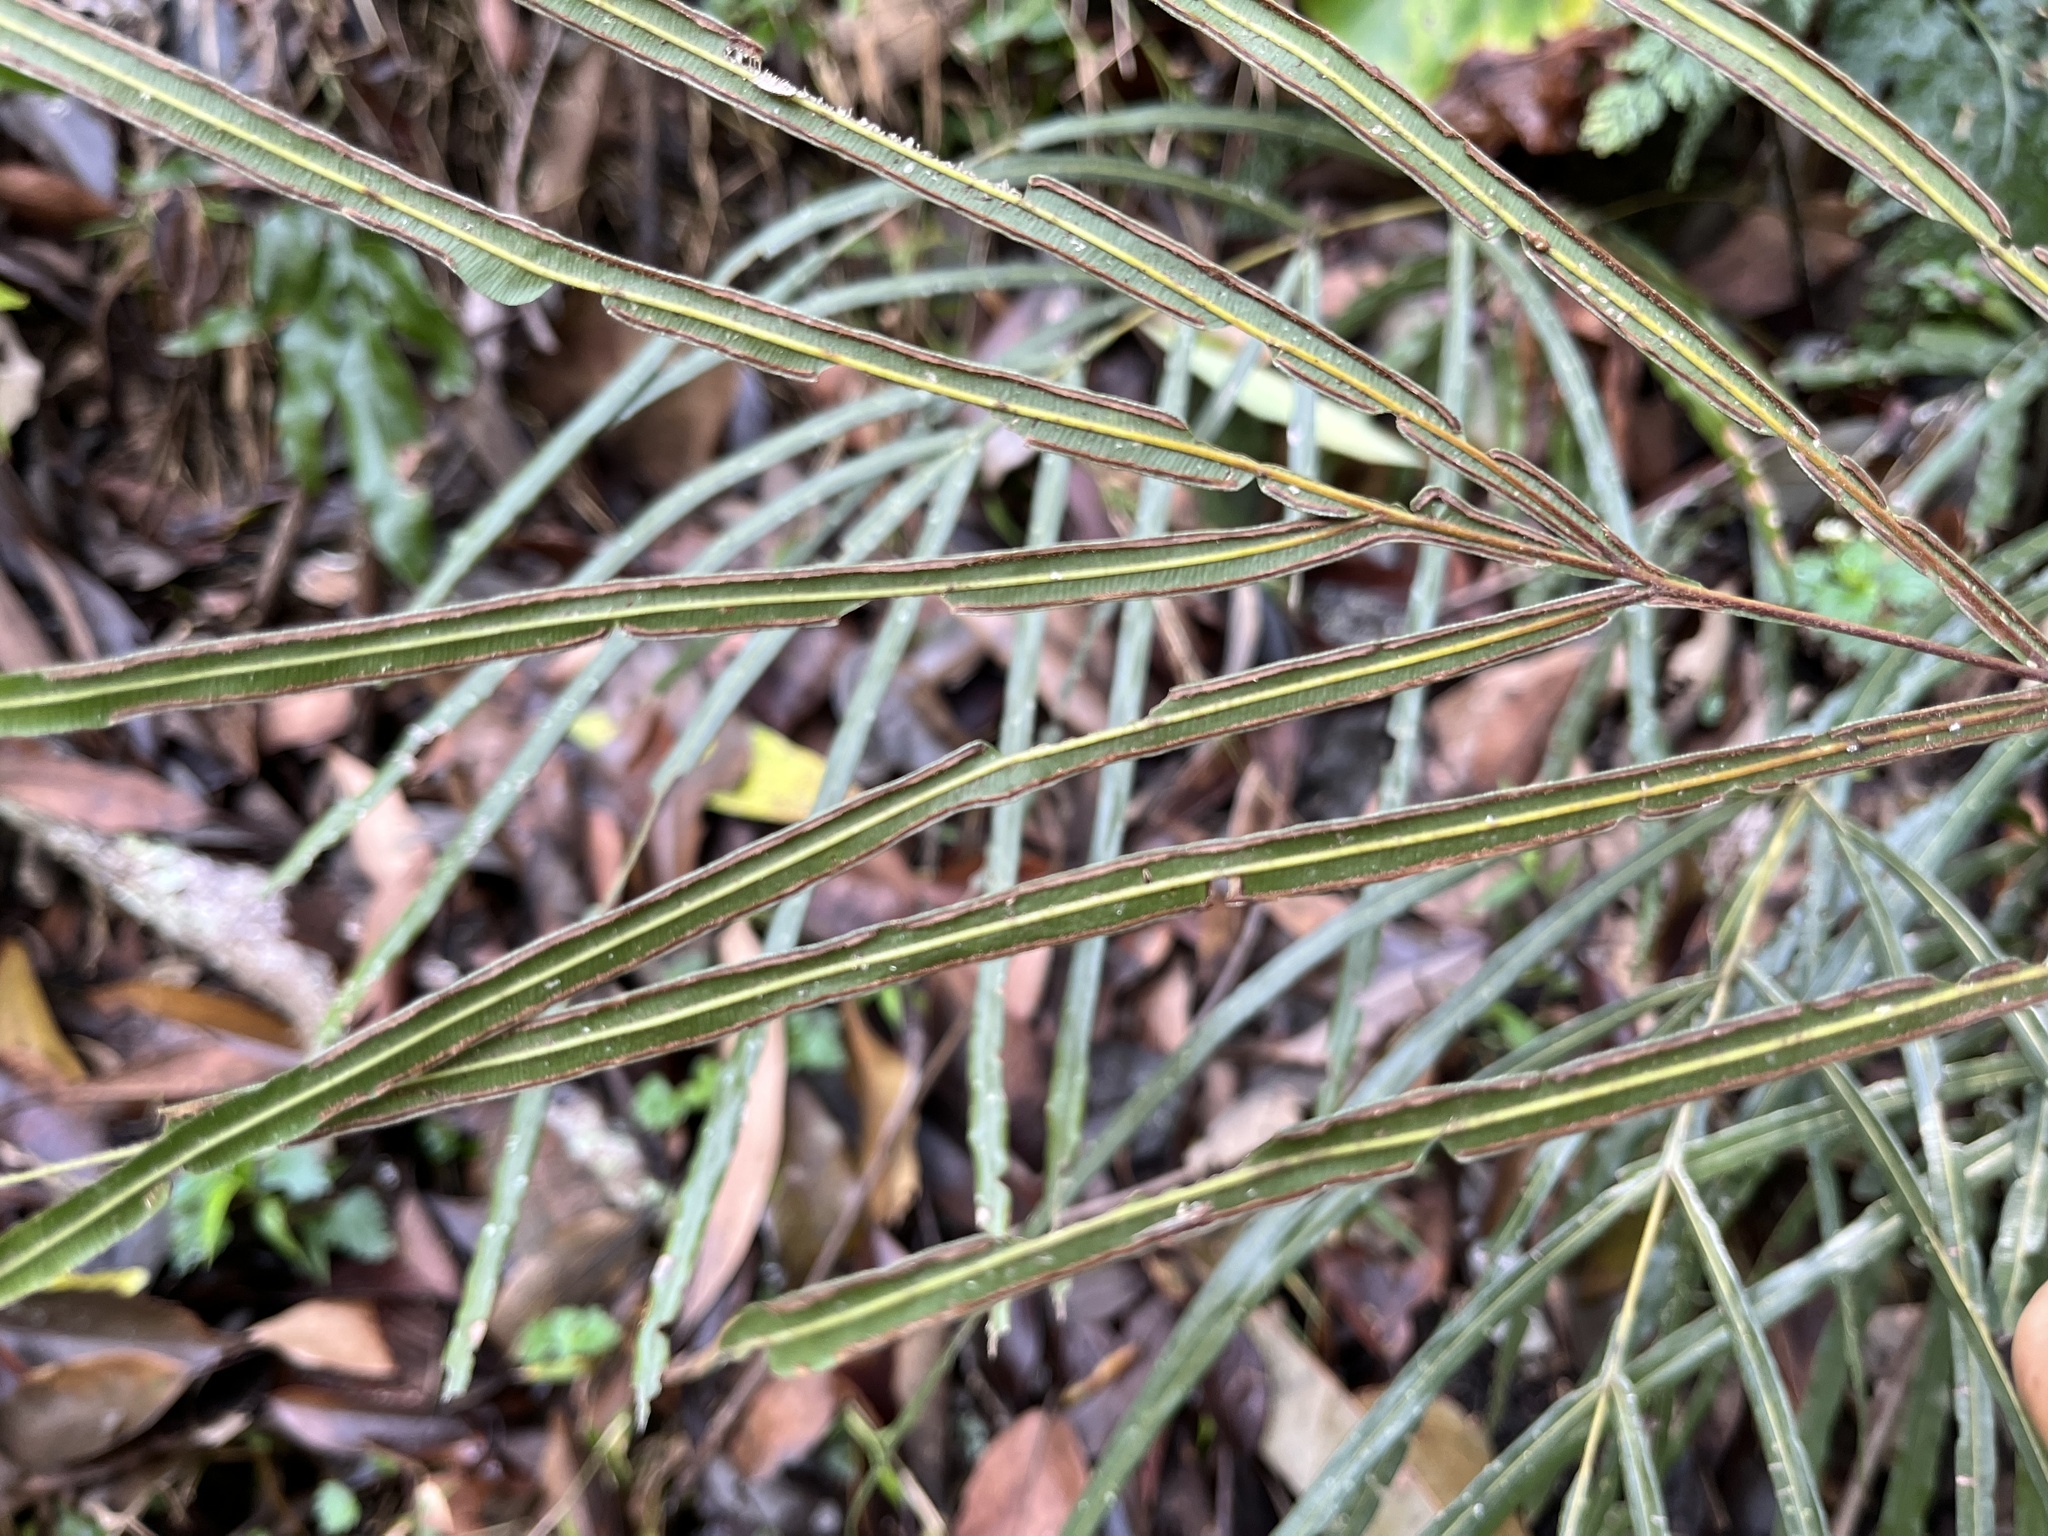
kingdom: Plantae
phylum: Tracheophyta
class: Polypodiopsida
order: Polypodiales
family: Pteridaceae
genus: Pteris
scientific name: Pteris longipinna
